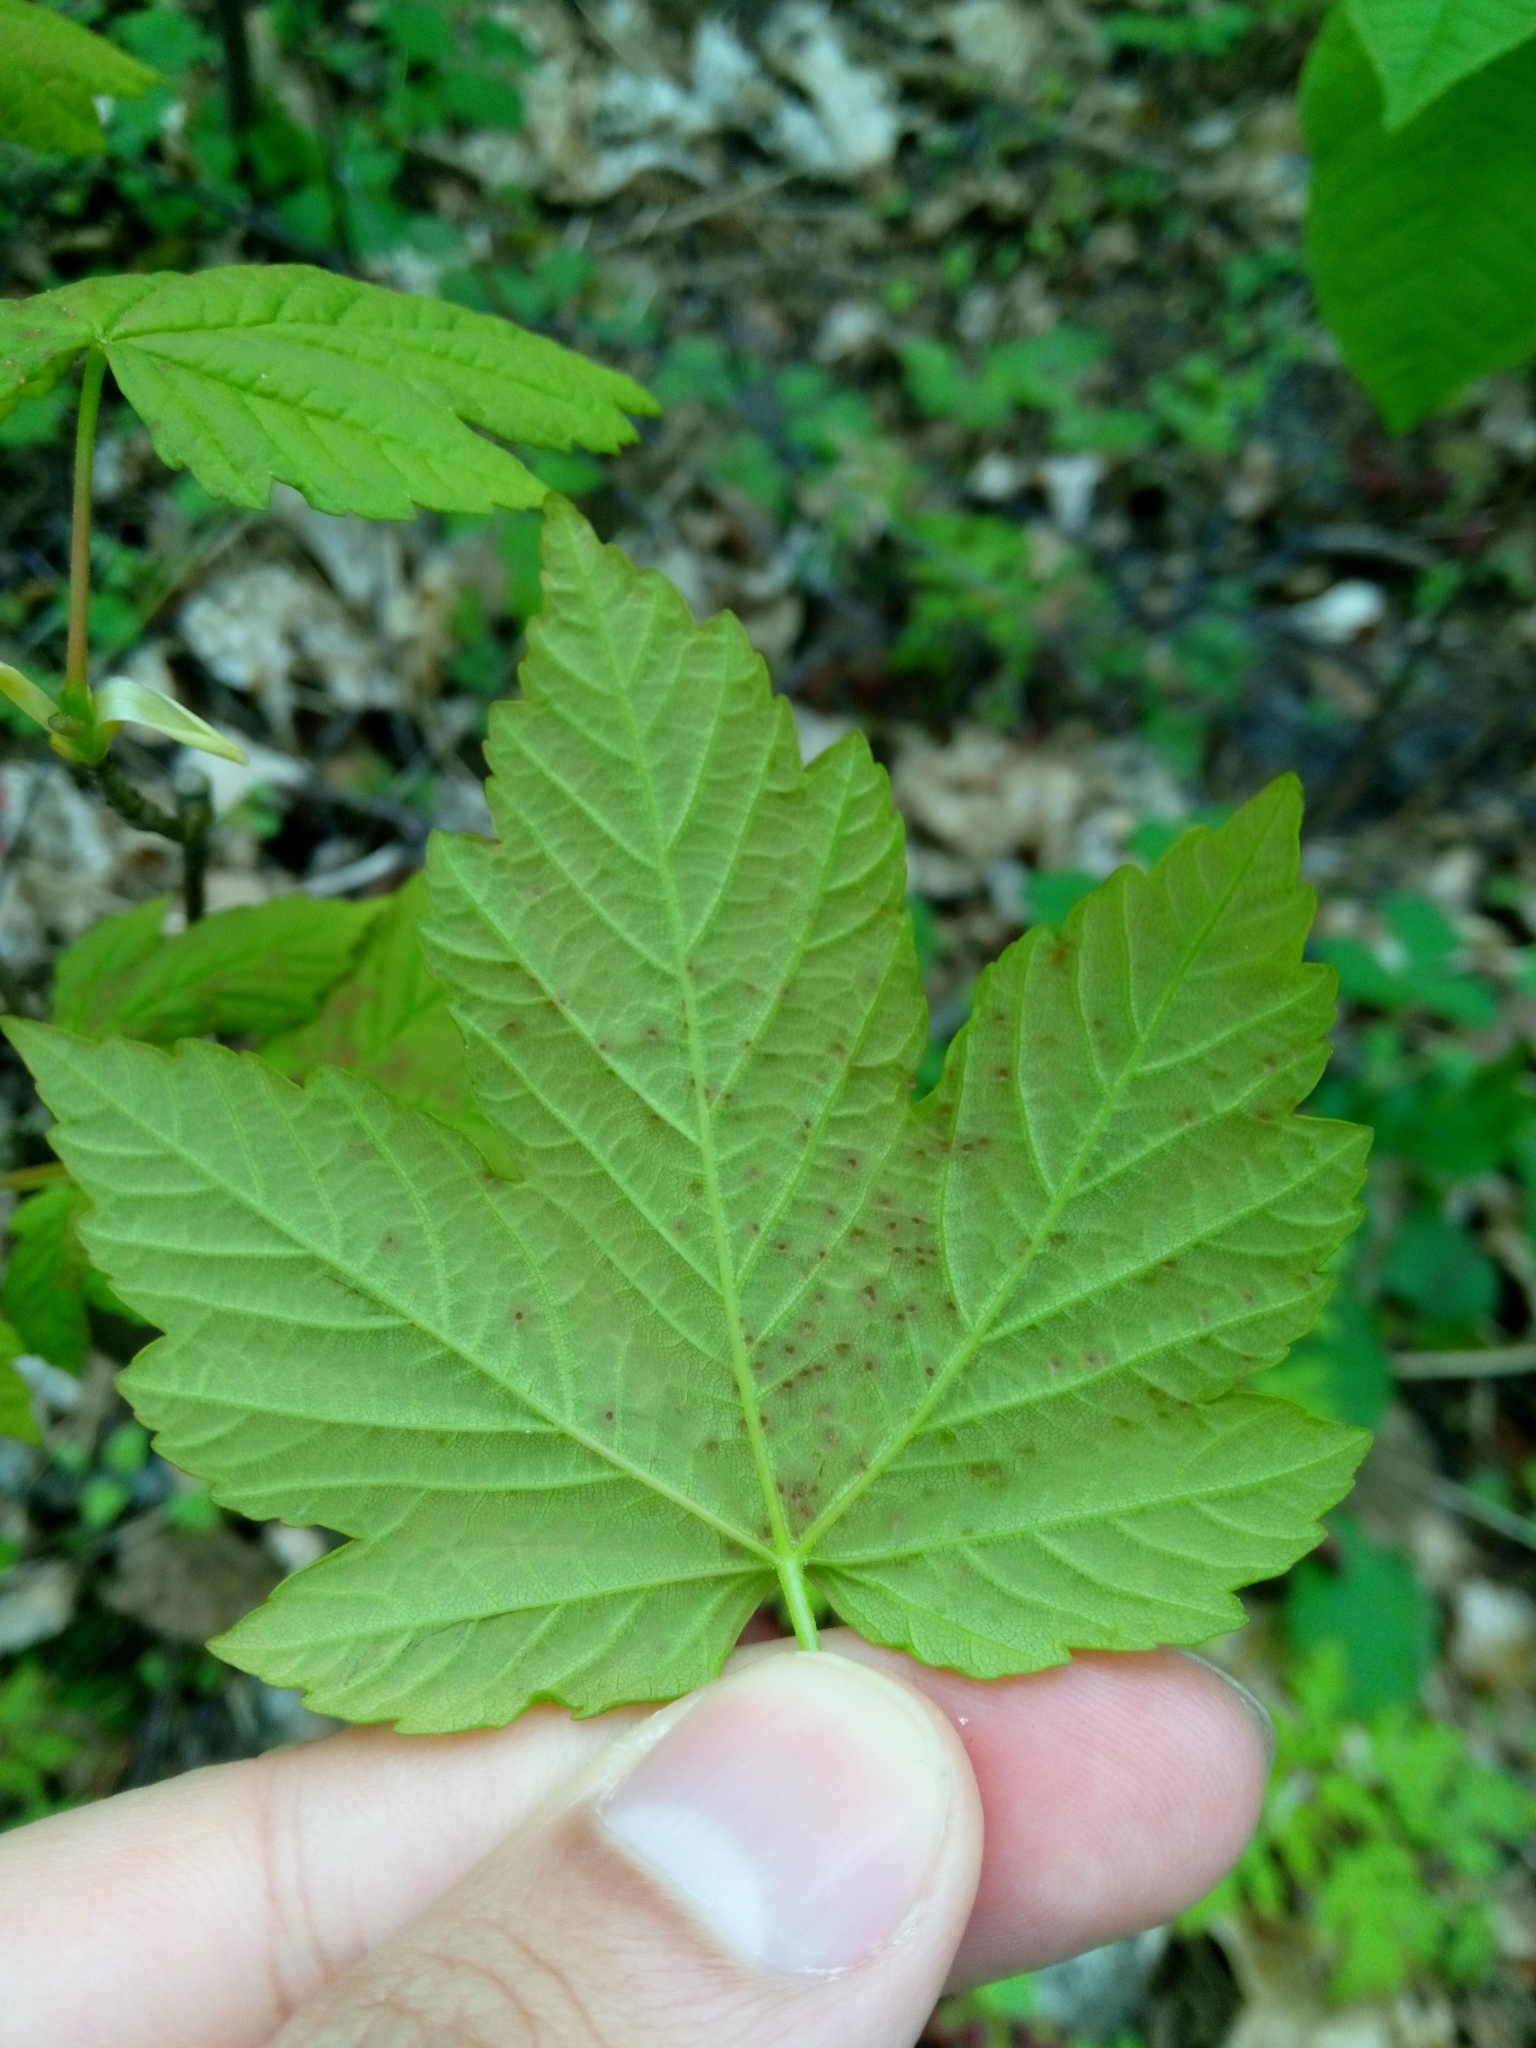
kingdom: Plantae
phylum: Tracheophyta
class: Magnoliopsida
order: Sapindales
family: Sapindaceae
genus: Acer
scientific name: Acer pseudoplatanus
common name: Sycamore
